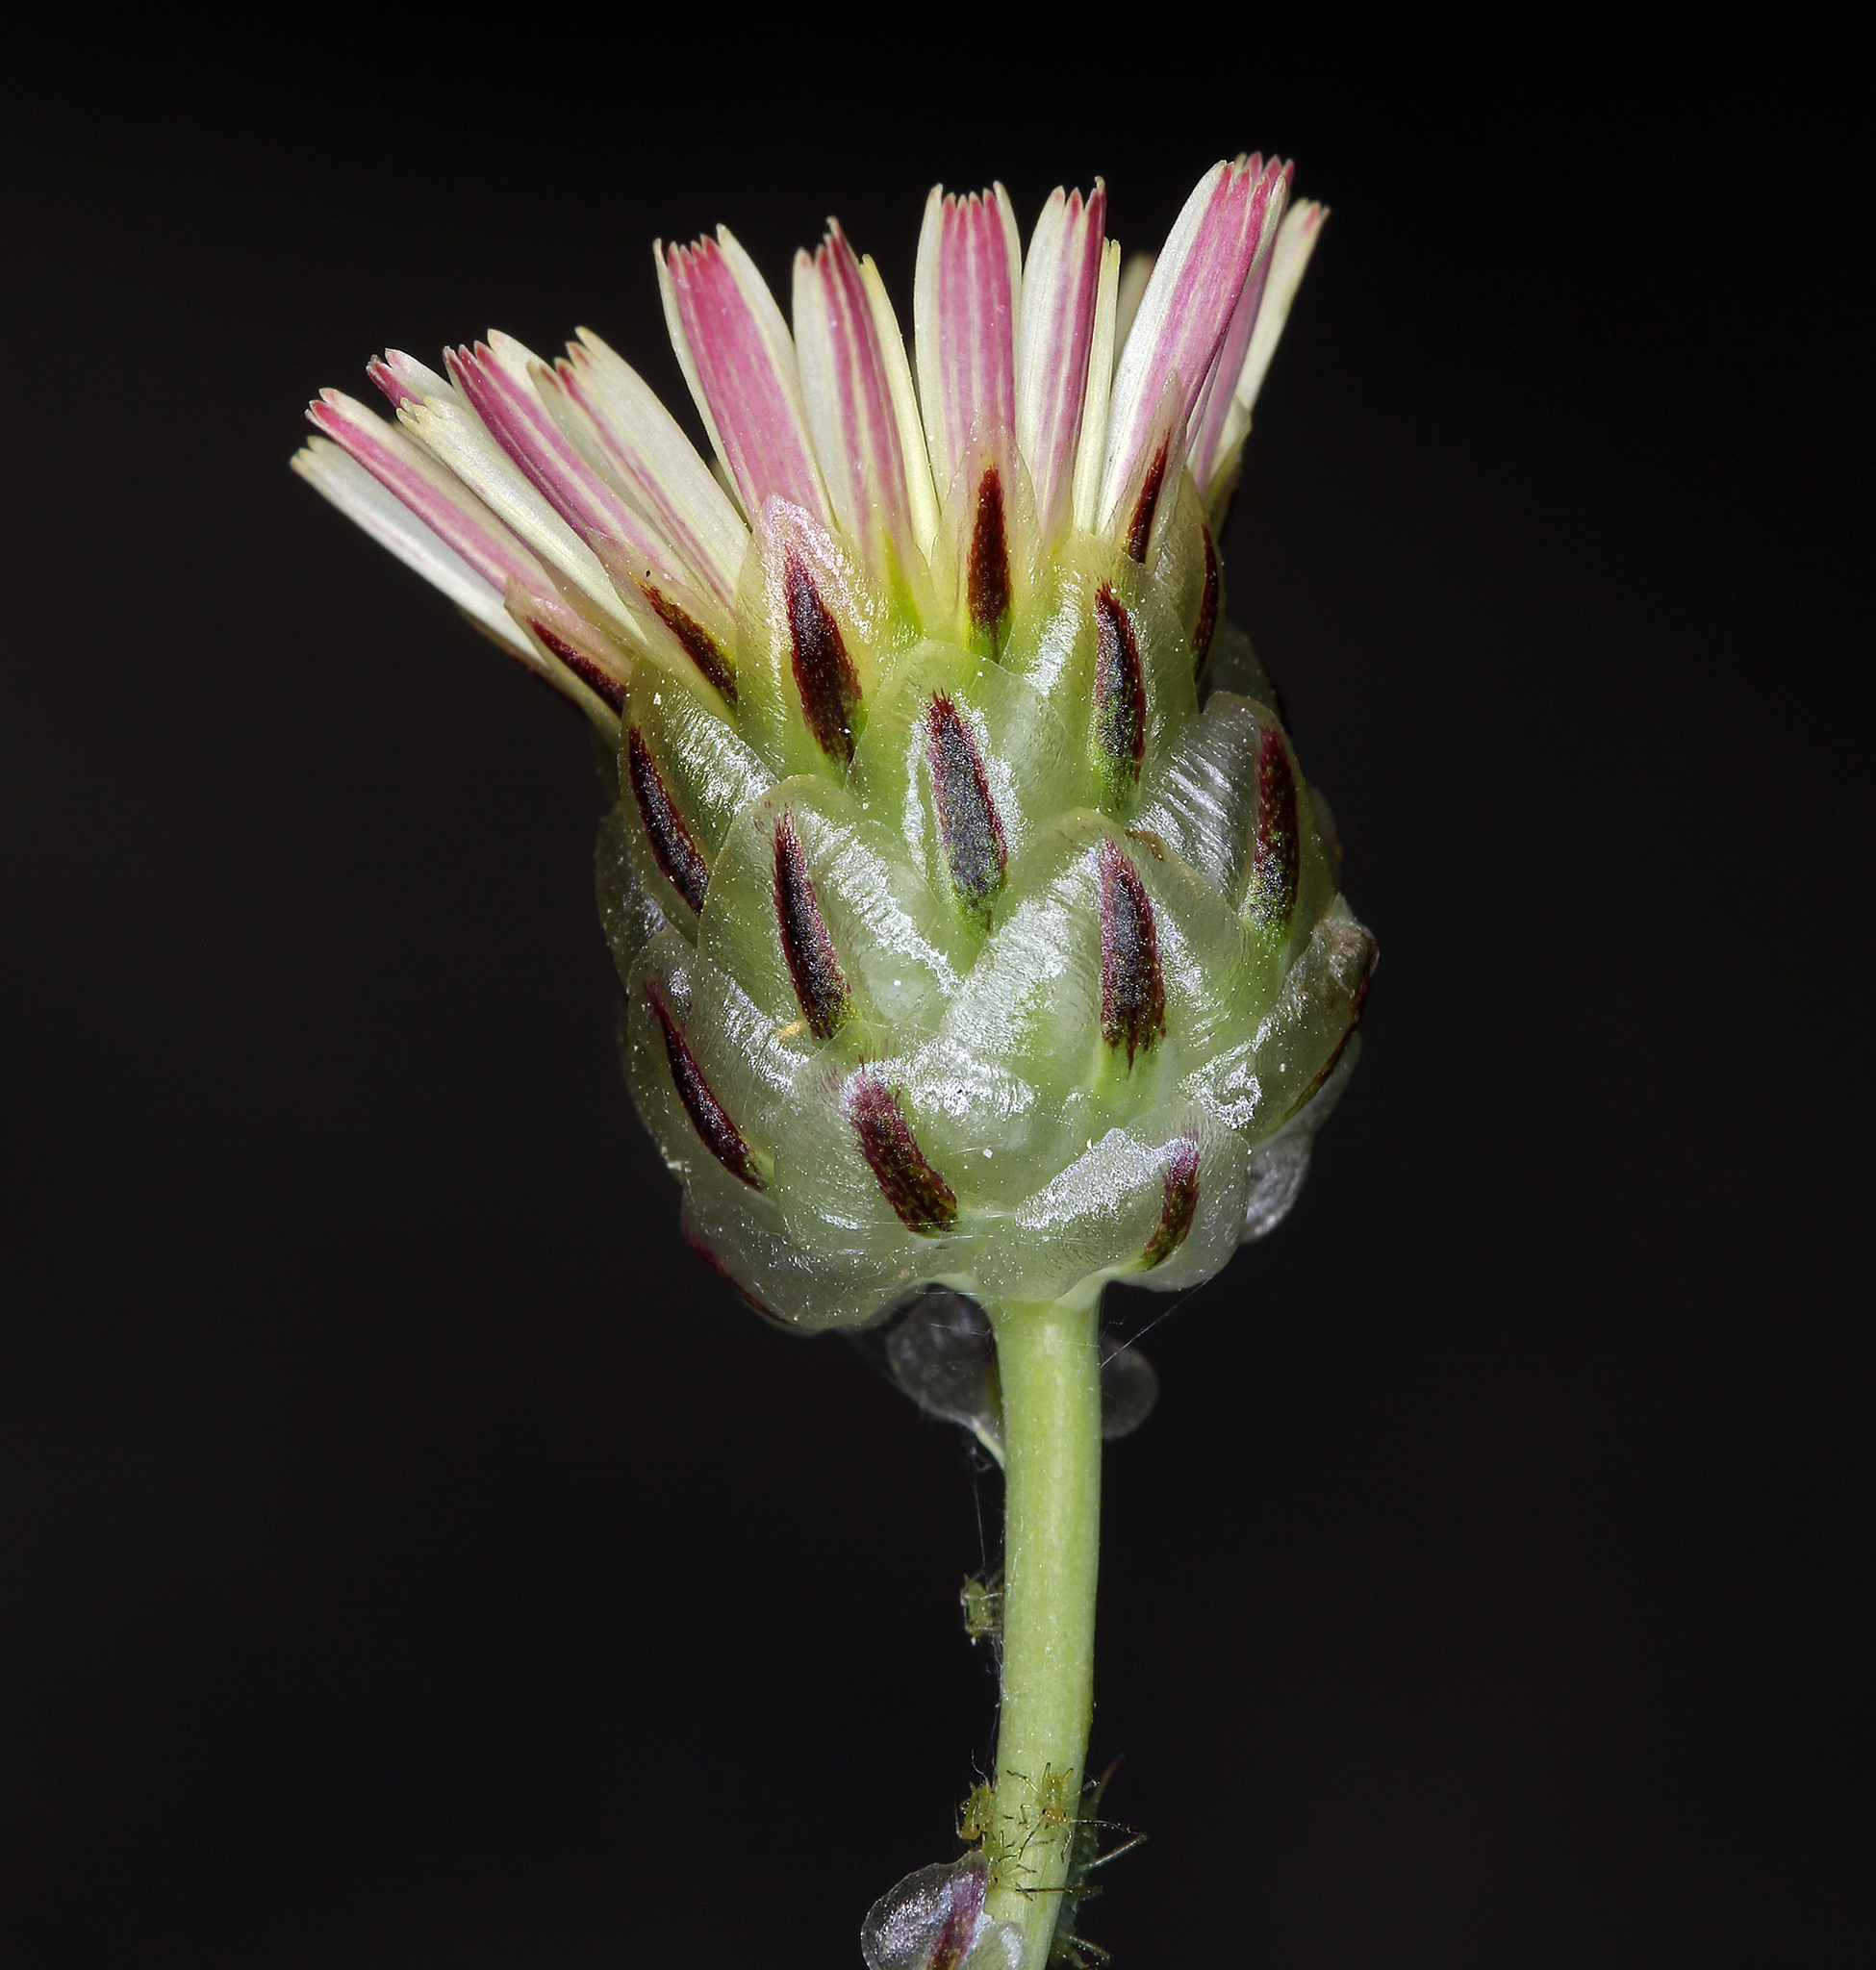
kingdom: Plantae
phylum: Tracheophyta
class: Magnoliopsida
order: Asterales
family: Asteraceae
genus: Malacothrix
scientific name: Malacothrix coulteri
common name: Snake's-head
